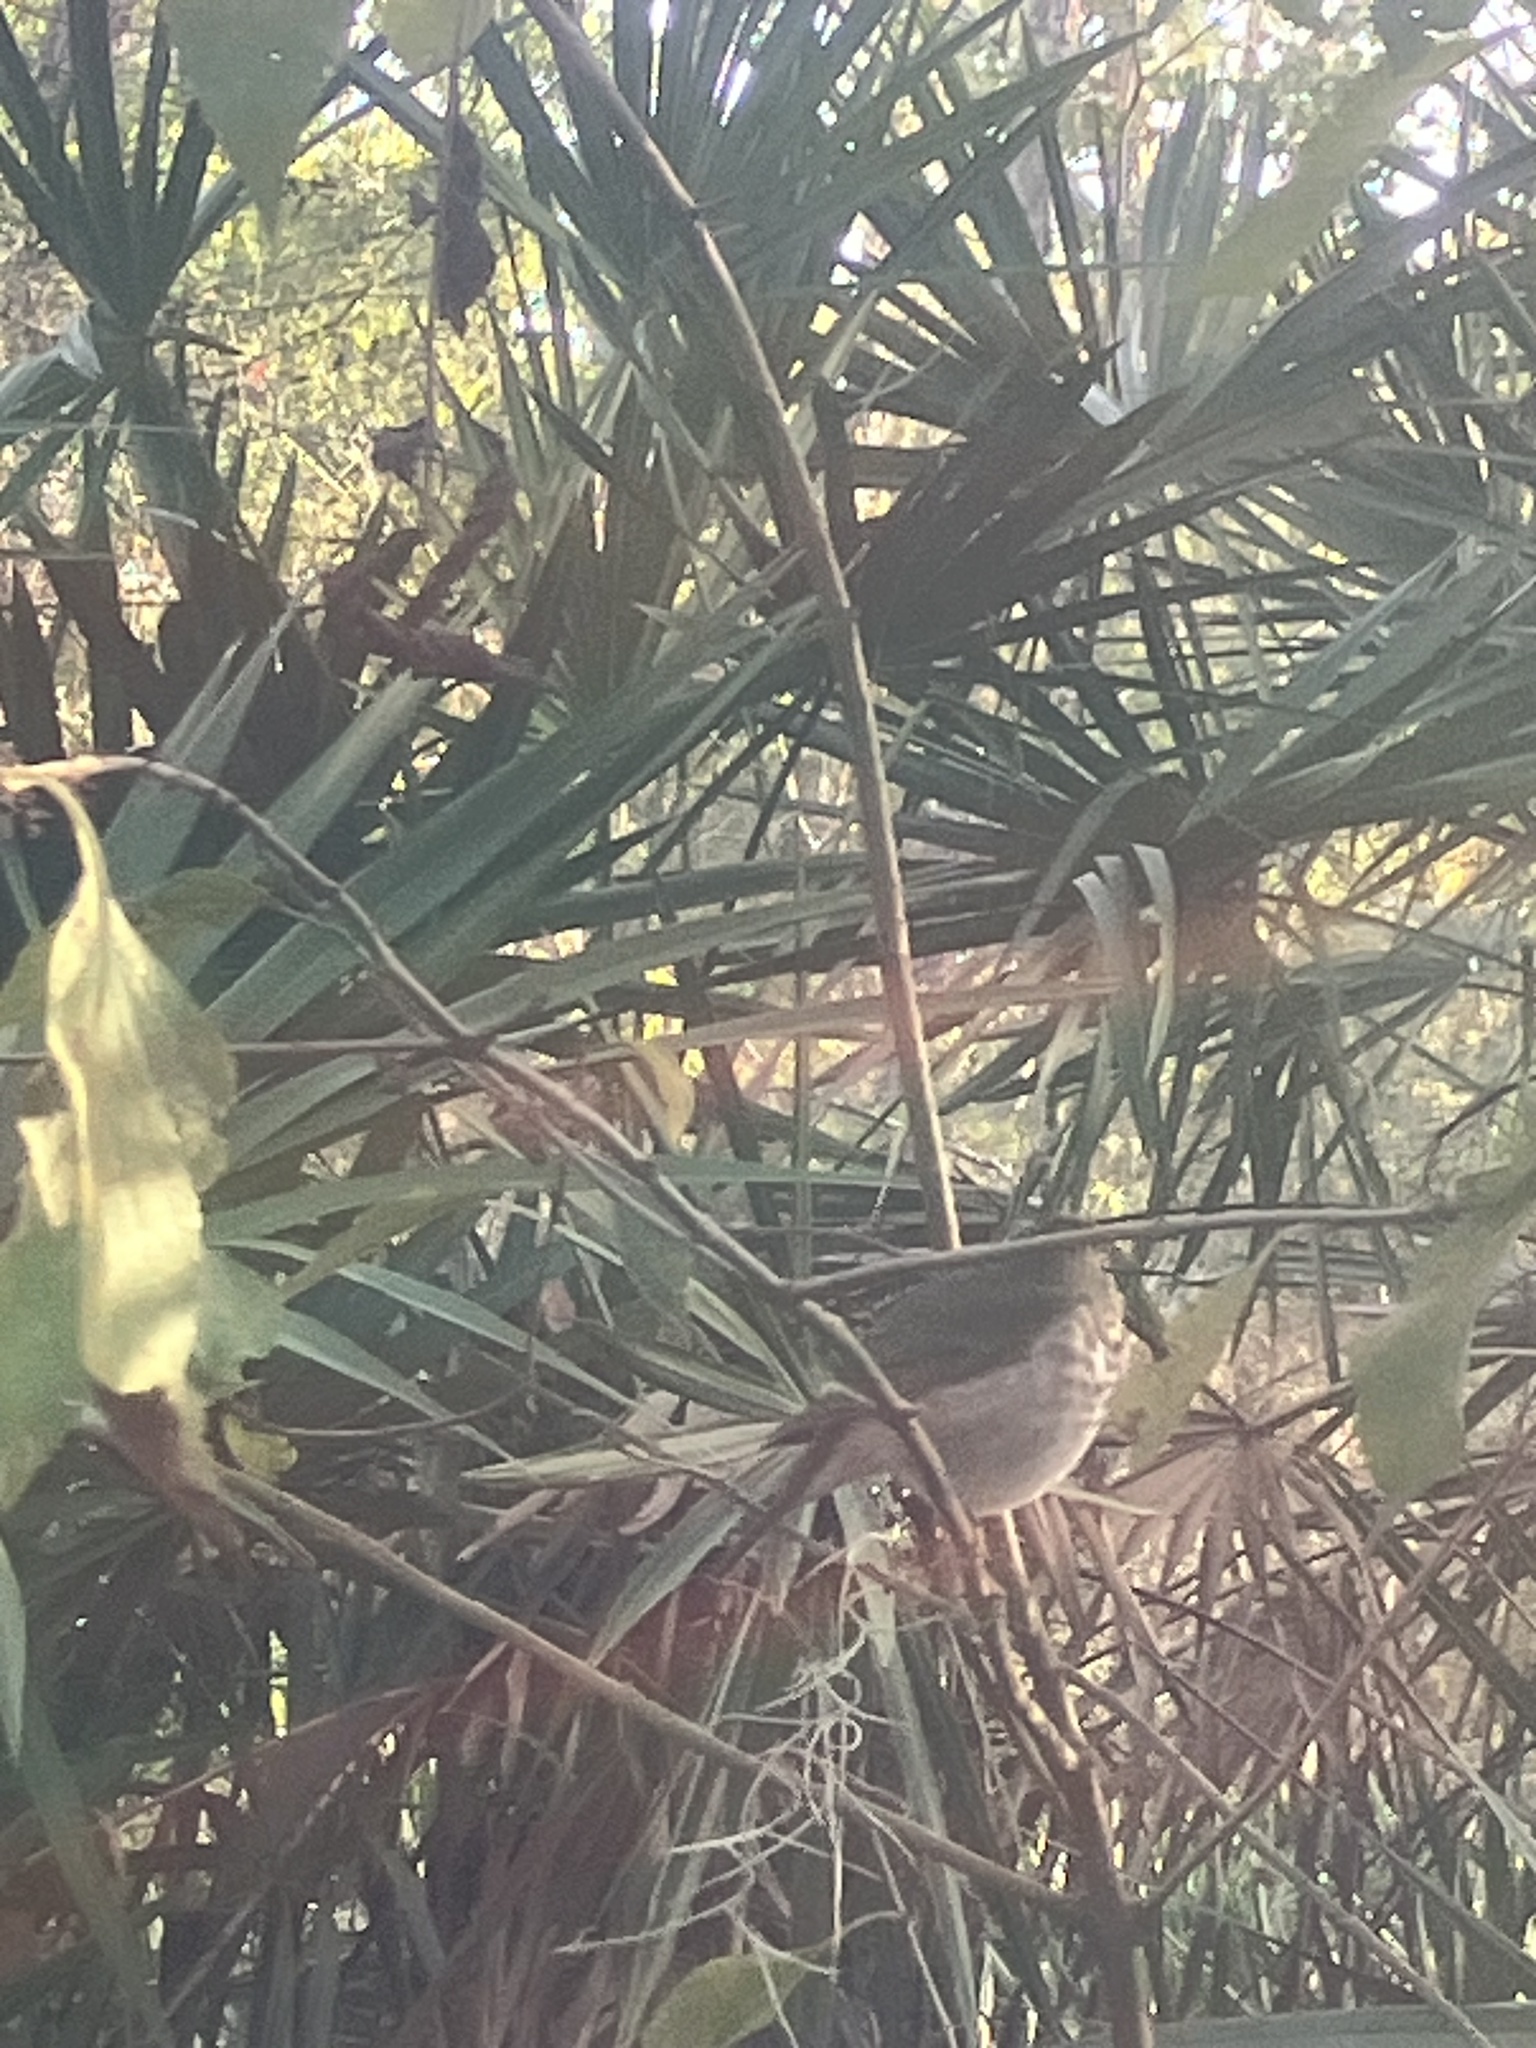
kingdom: Animalia
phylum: Chordata
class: Aves
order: Passeriformes
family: Turdidae
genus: Catharus
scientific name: Catharus guttatus
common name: Hermit thrush
